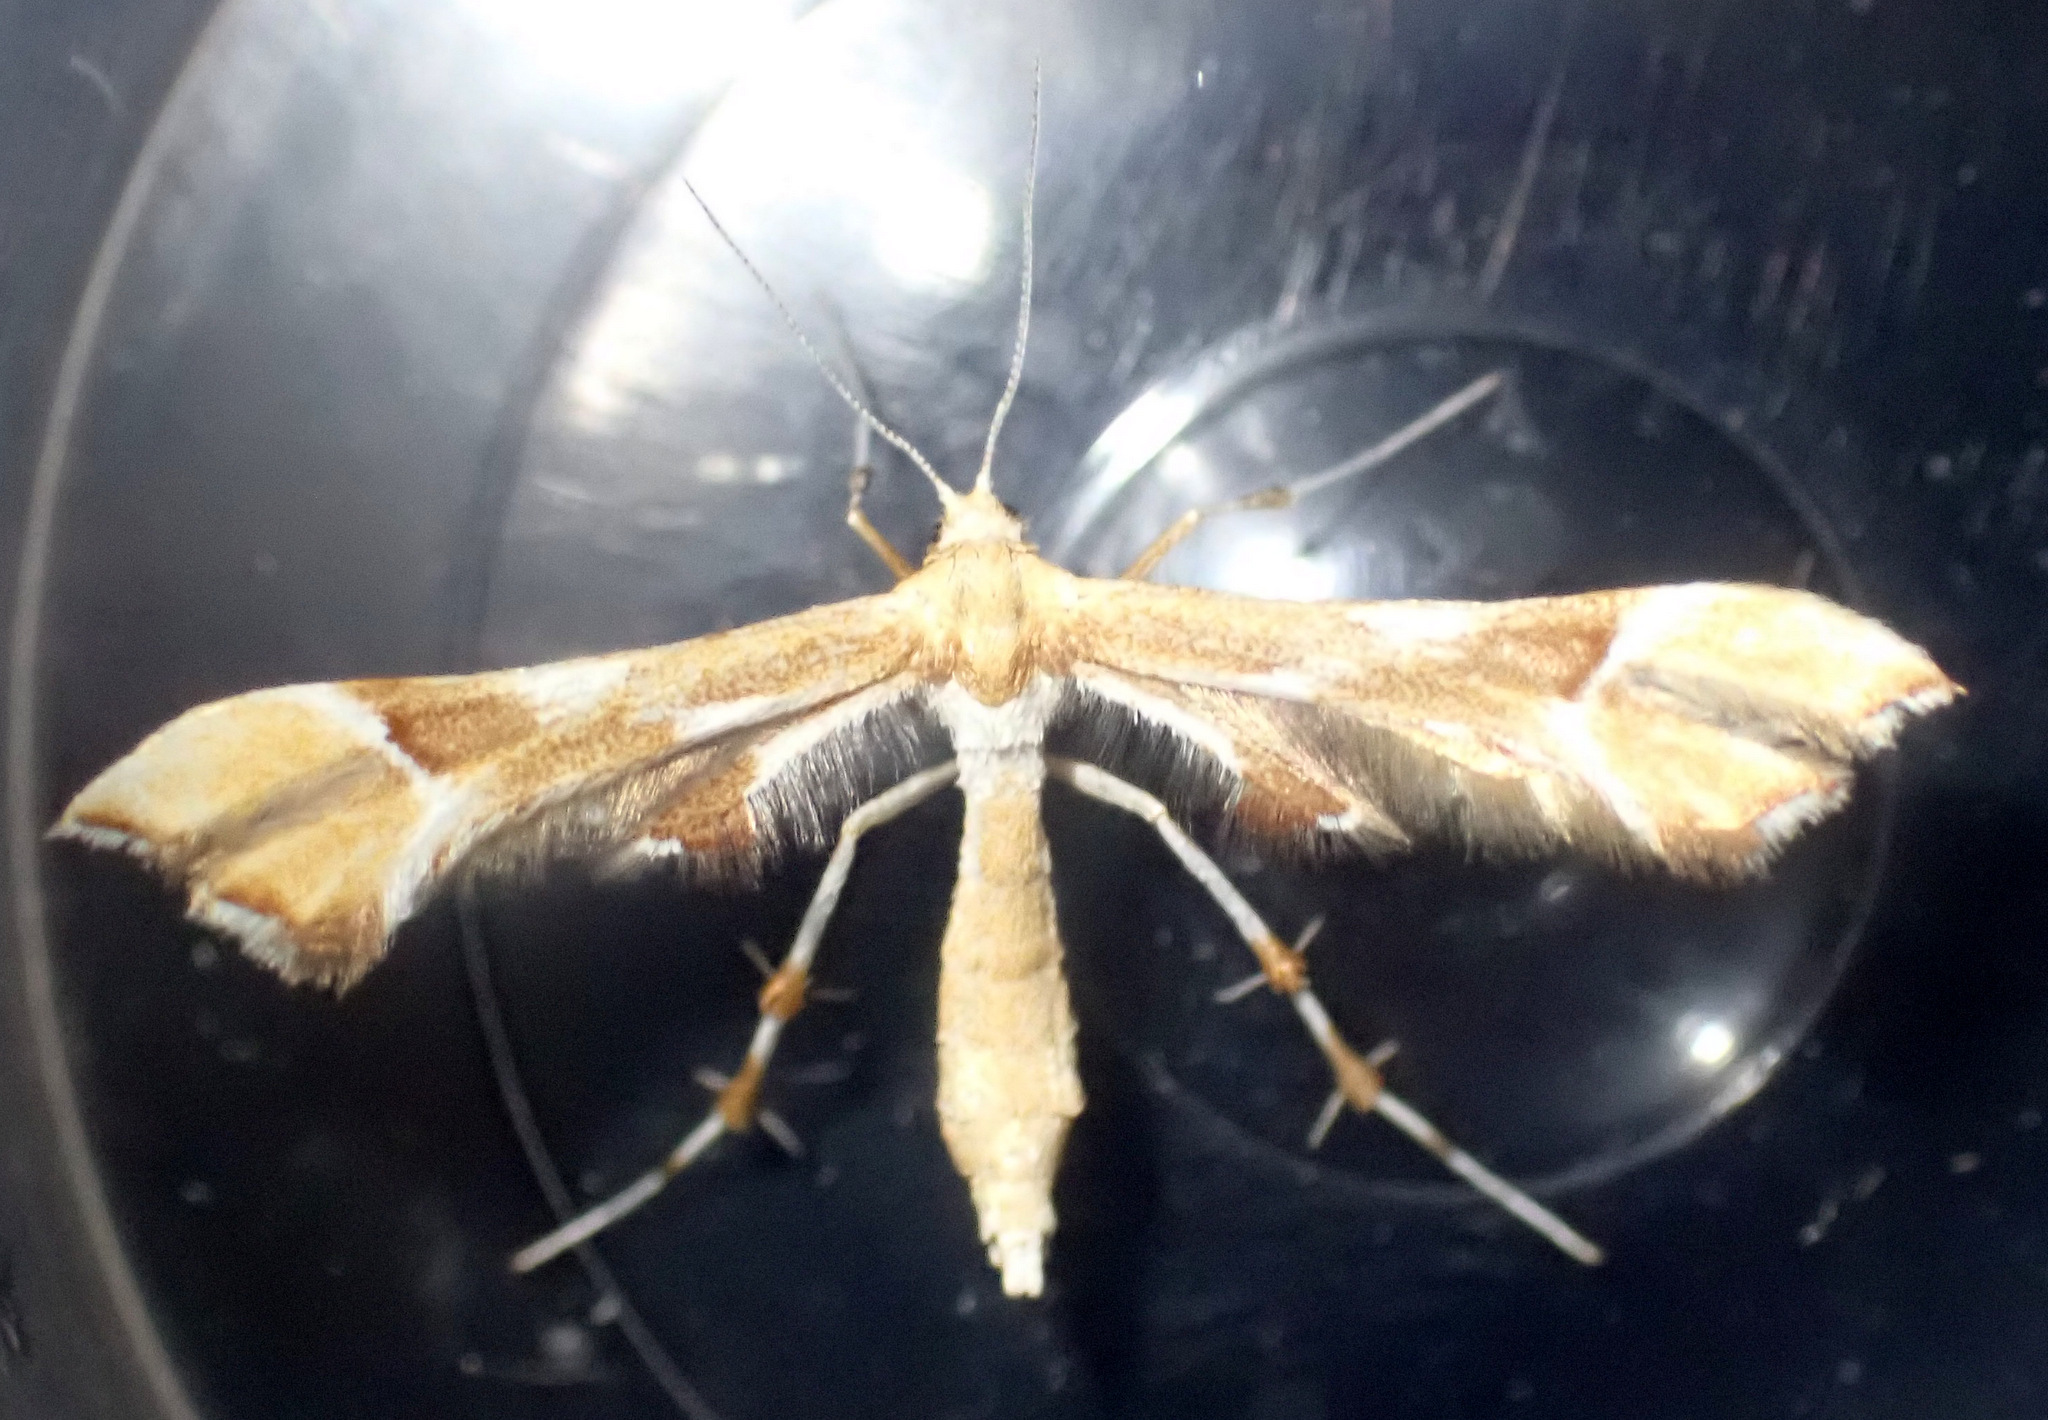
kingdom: Animalia
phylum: Arthropoda
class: Insecta
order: Lepidoptera
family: Pterophoridae
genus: Cnaemidophorus
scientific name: Cnaemidophorus rhododactyla
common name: Rose plume
